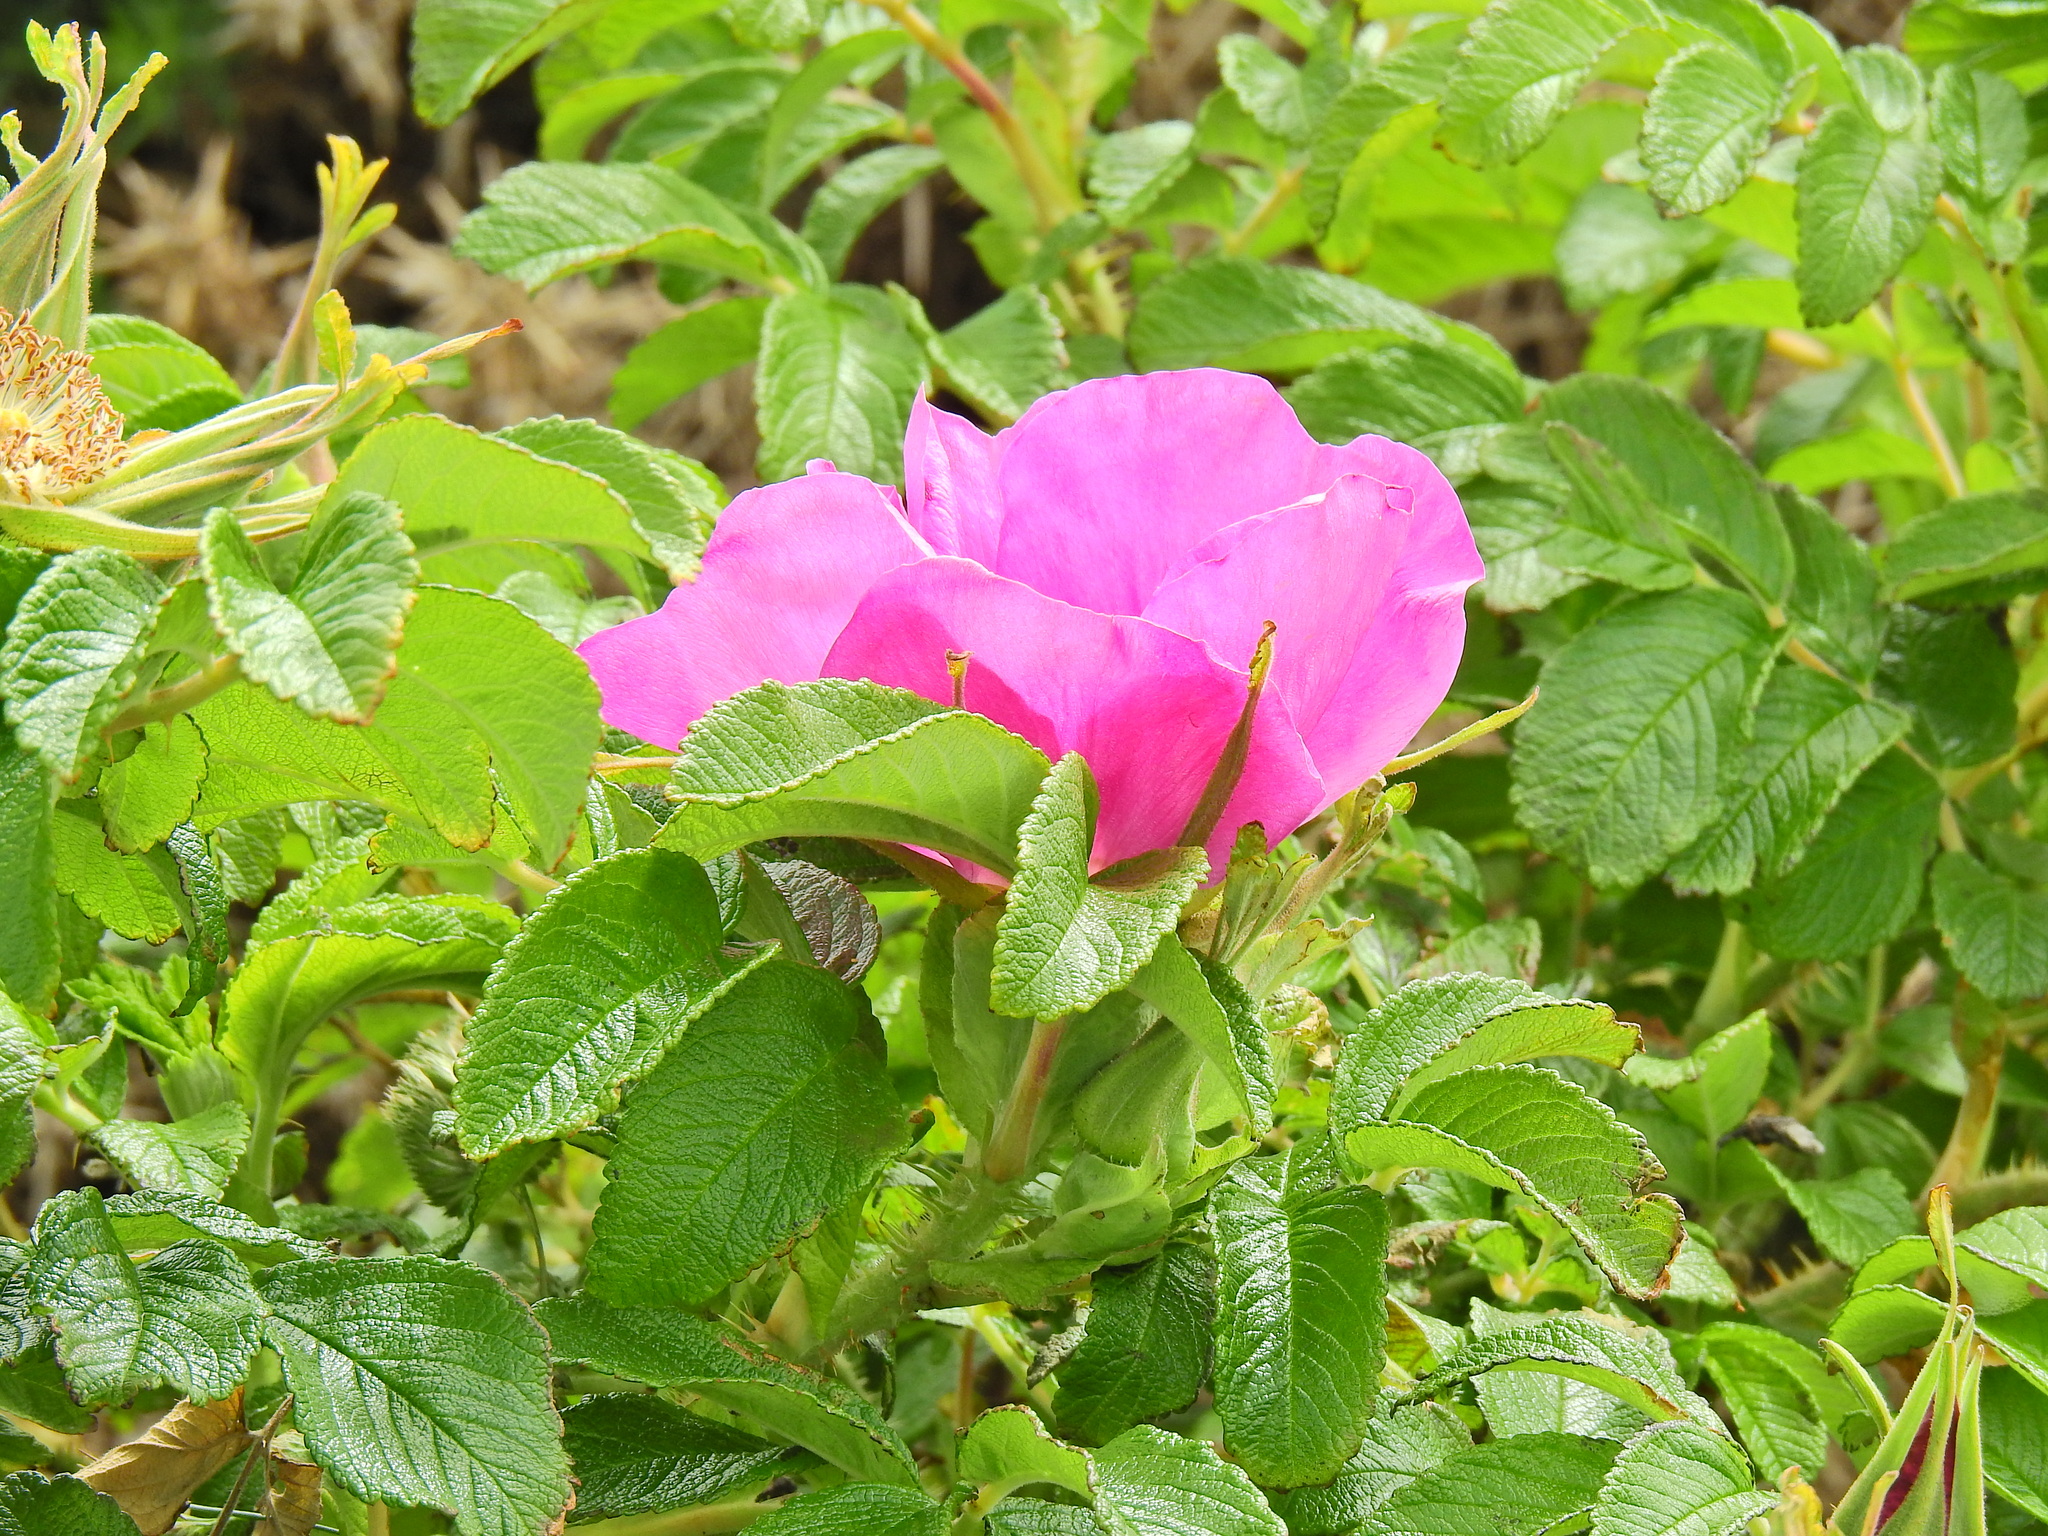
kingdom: Plantae
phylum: Tracheophyta
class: Magnoliopsida
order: Rosales
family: Rosaceae
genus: Rosa
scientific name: Rosa rugosa
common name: Japanese rose
